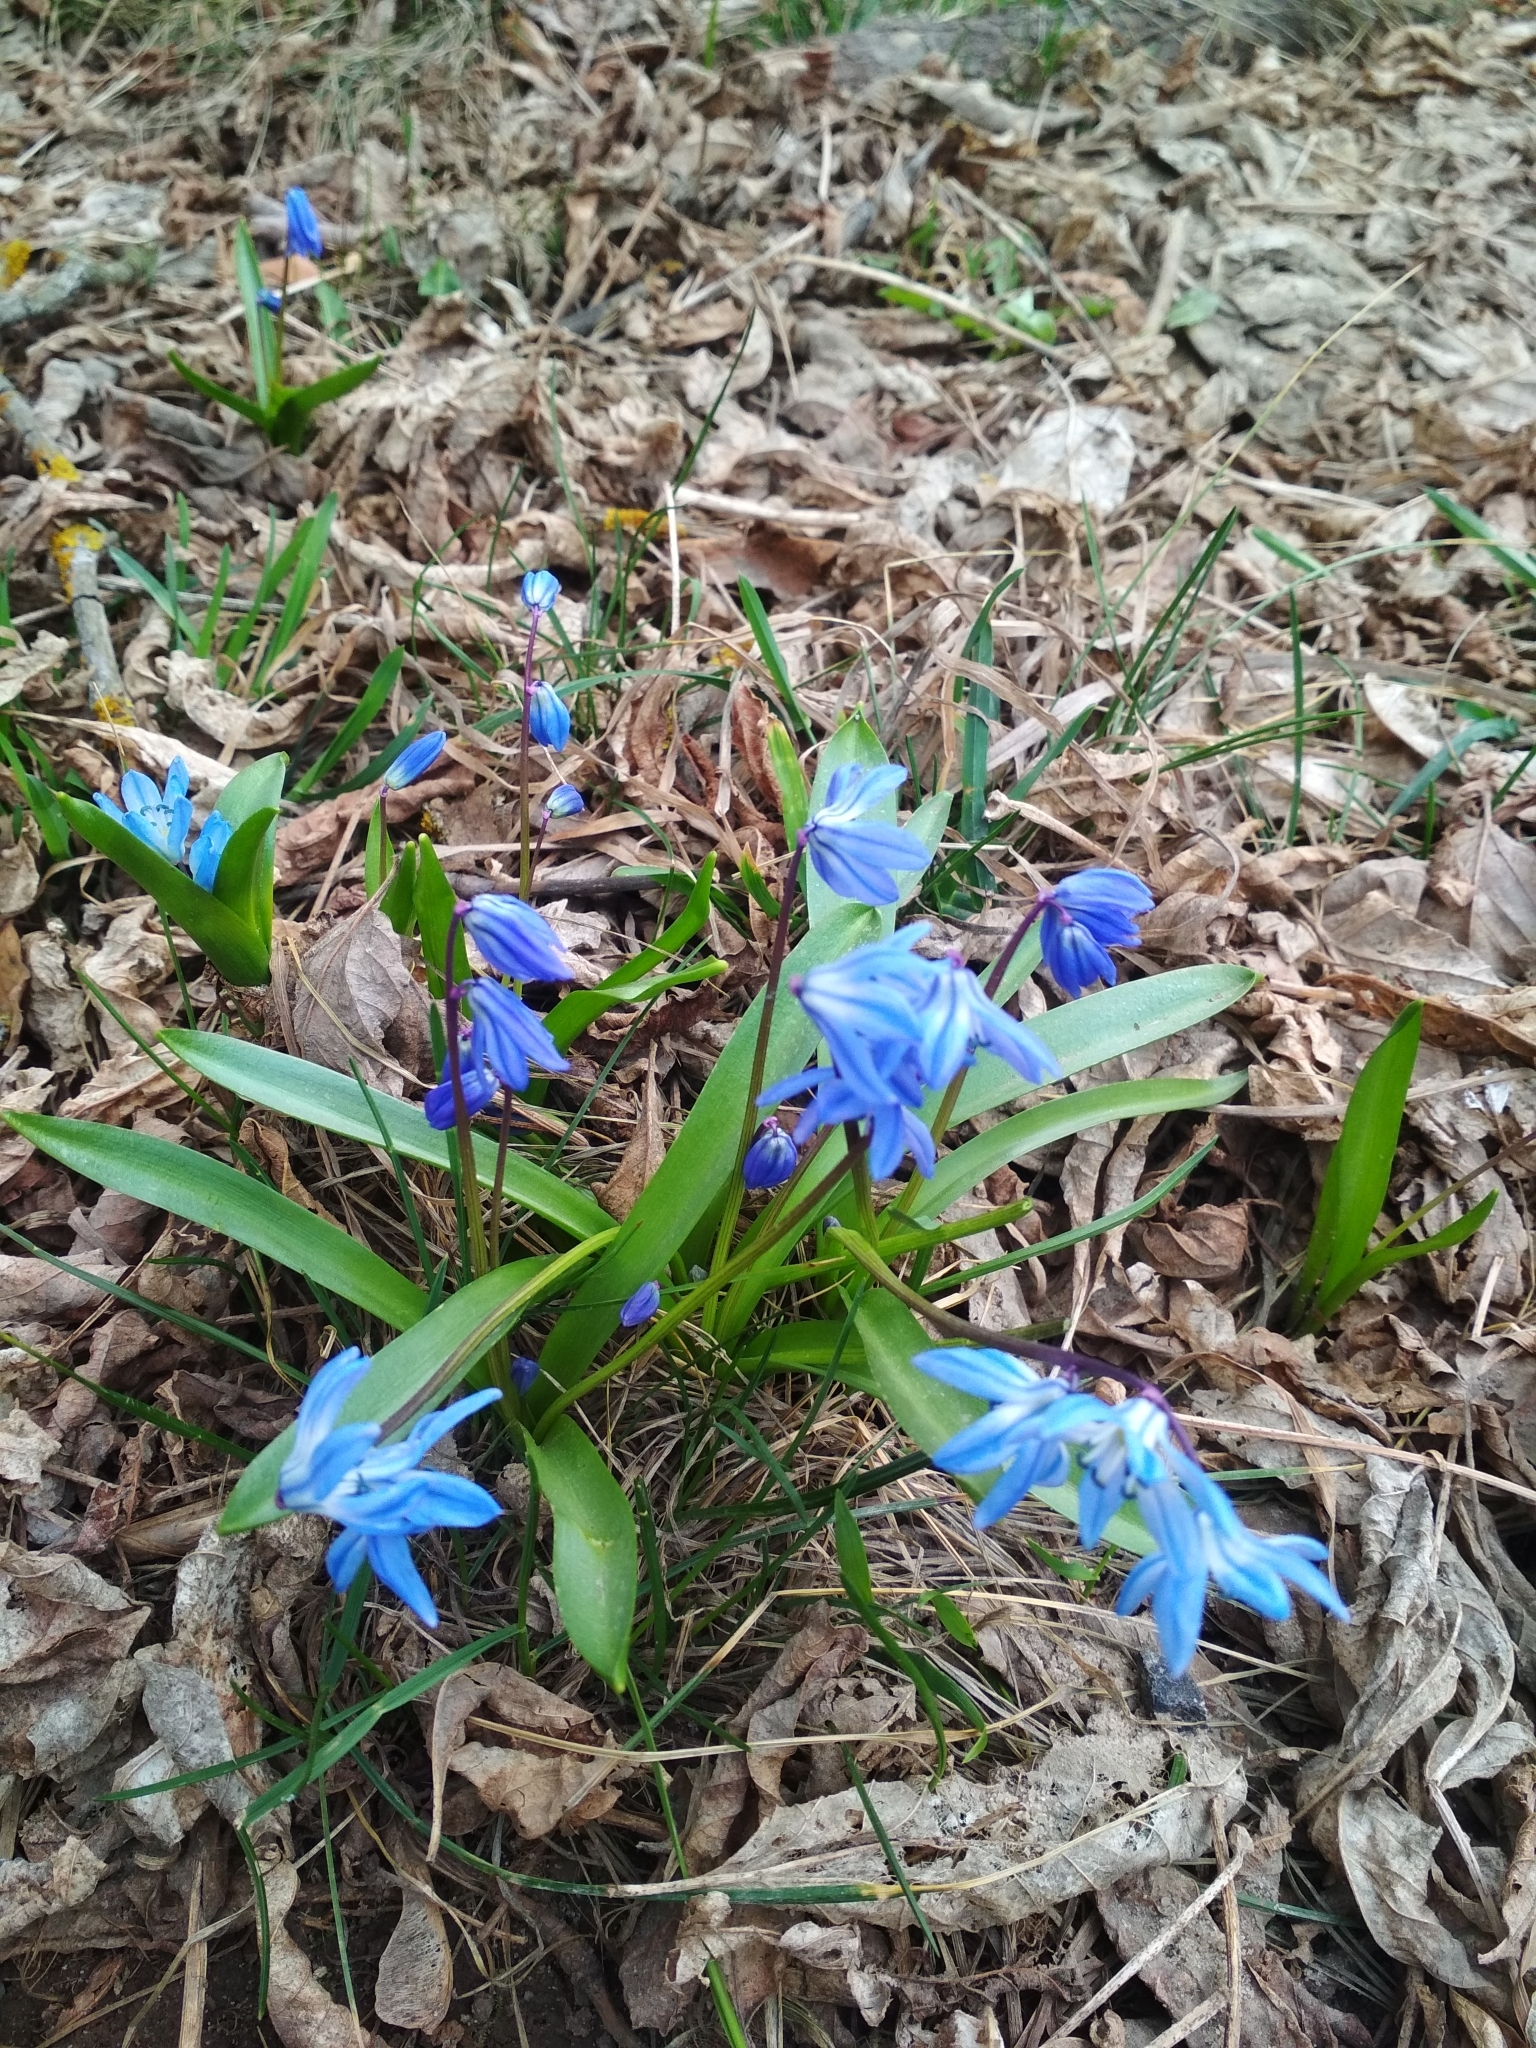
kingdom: Plantae
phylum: Tracheophyta
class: Liliopsida
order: Asparagales
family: Asparagaceae
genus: Scilla
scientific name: Scilla siberica
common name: Siberian squill
